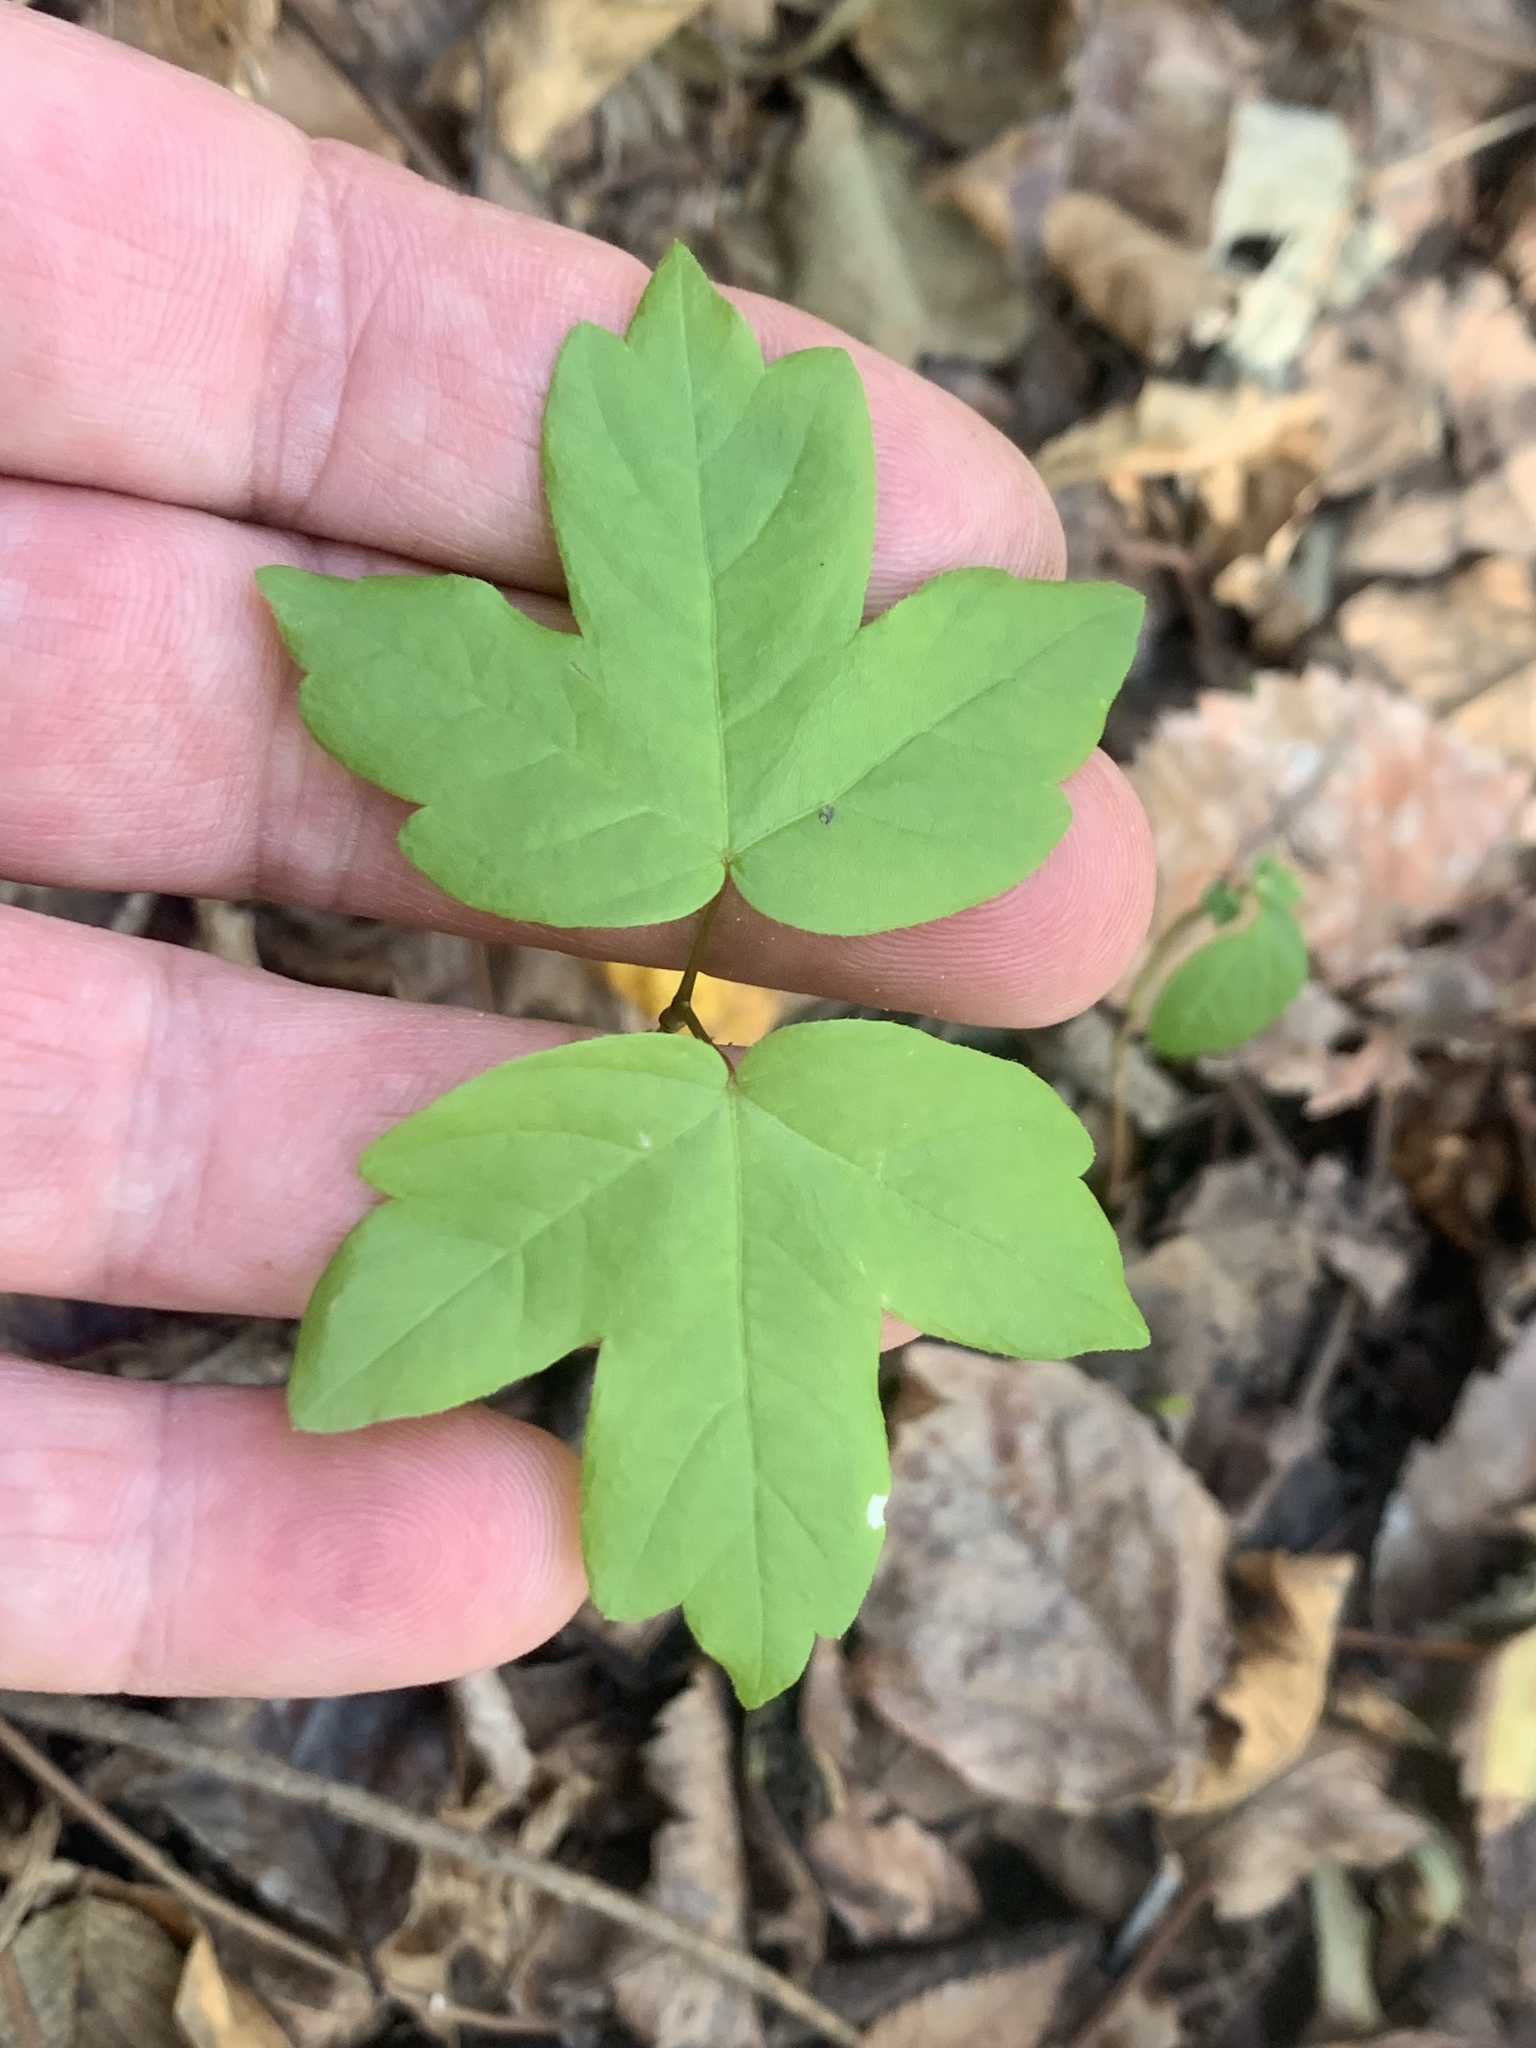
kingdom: Plantae
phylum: Tracheophyta
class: Magnoliopsida
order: Sapindales
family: Sapindaceae
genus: Acer
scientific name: Acer negundo
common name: Ashleaf maple
